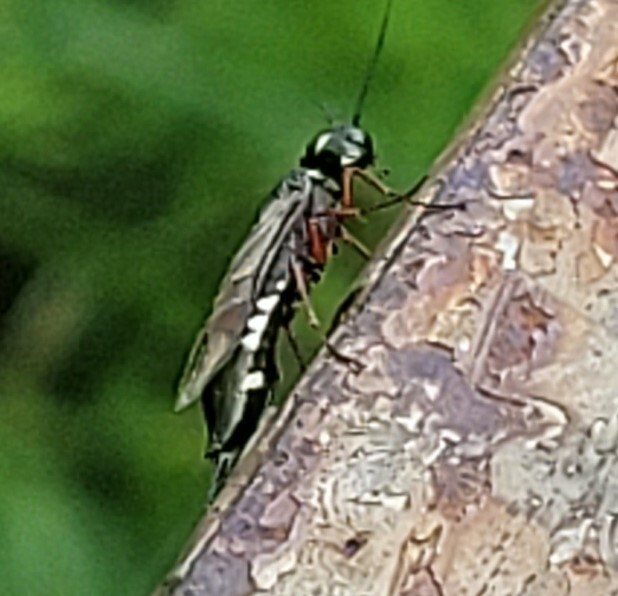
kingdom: Animalia
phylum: Arthropoda
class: Insecta
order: Hymenoptera
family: Xiphydriidae
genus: Xiphydria
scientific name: Xiphydria camelus
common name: Alder wood-wasp
